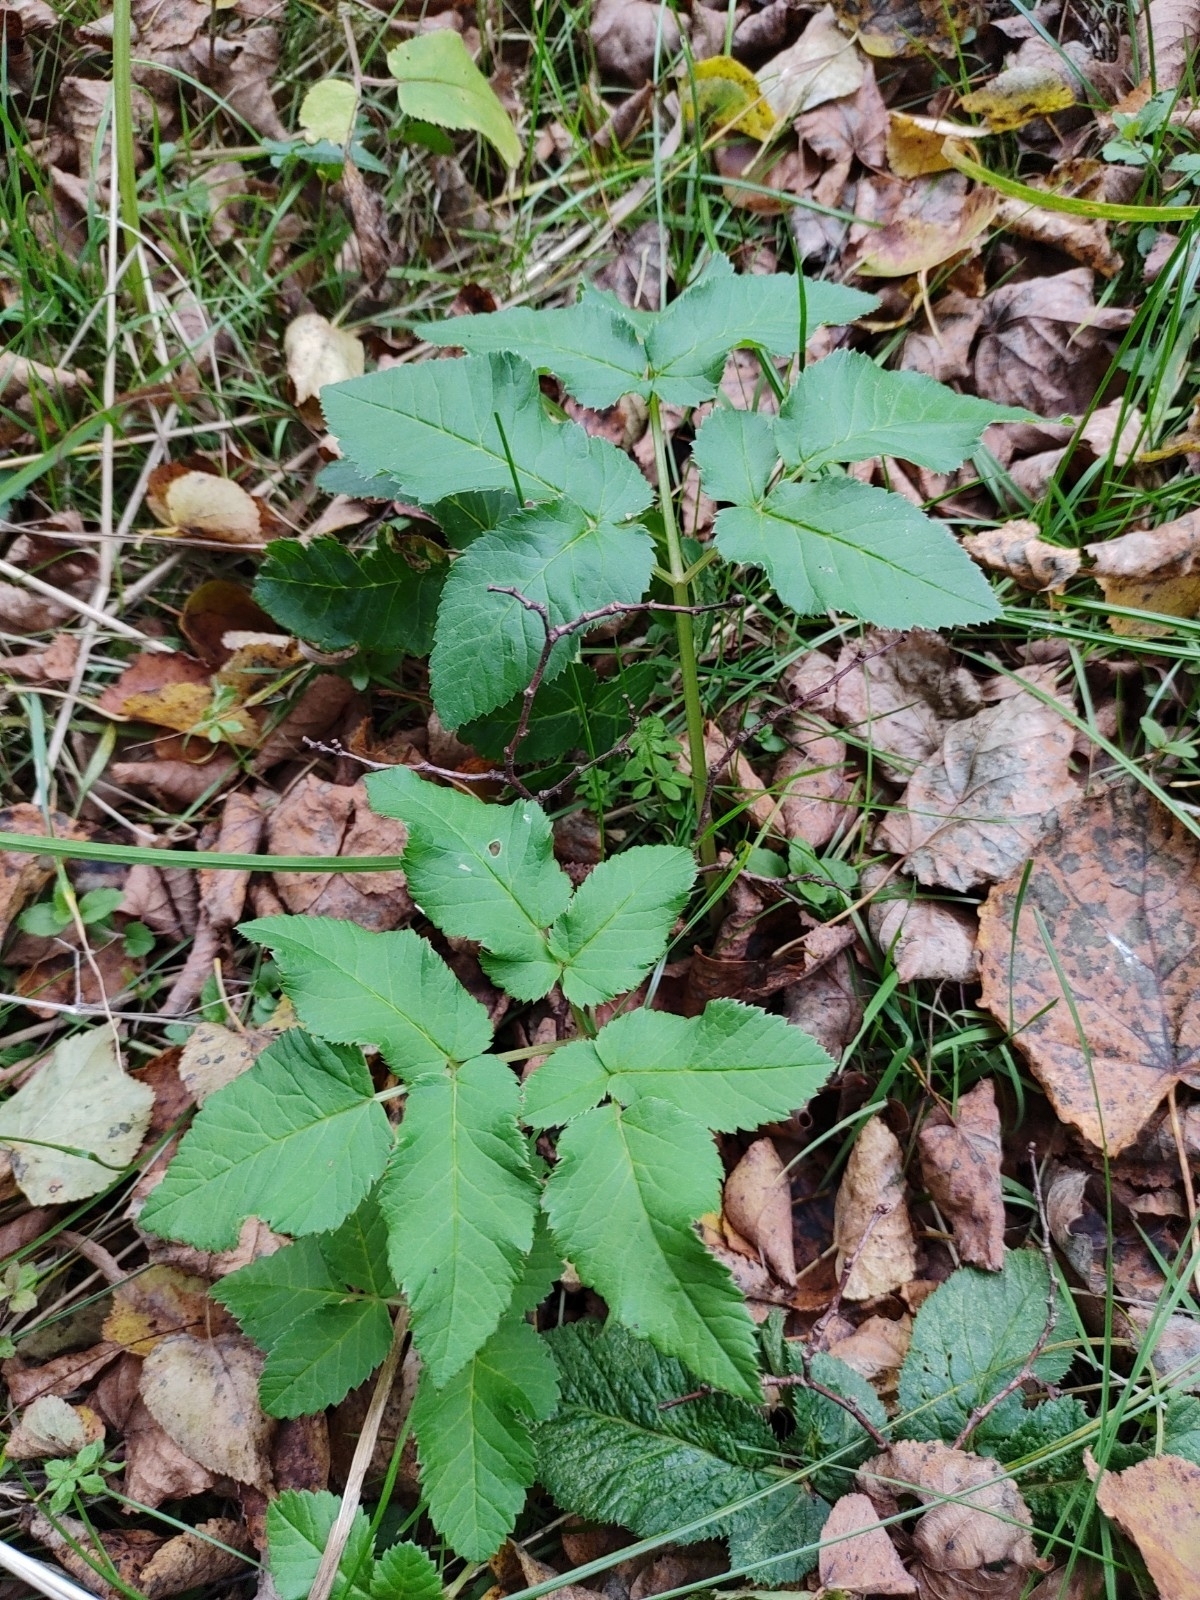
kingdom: Plantae
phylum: Tracheophyta
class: Magnoliopsida
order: Apiales
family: Apiaceae
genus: Aegopodium
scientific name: Aegopodium podagraria
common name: Ground-elder
